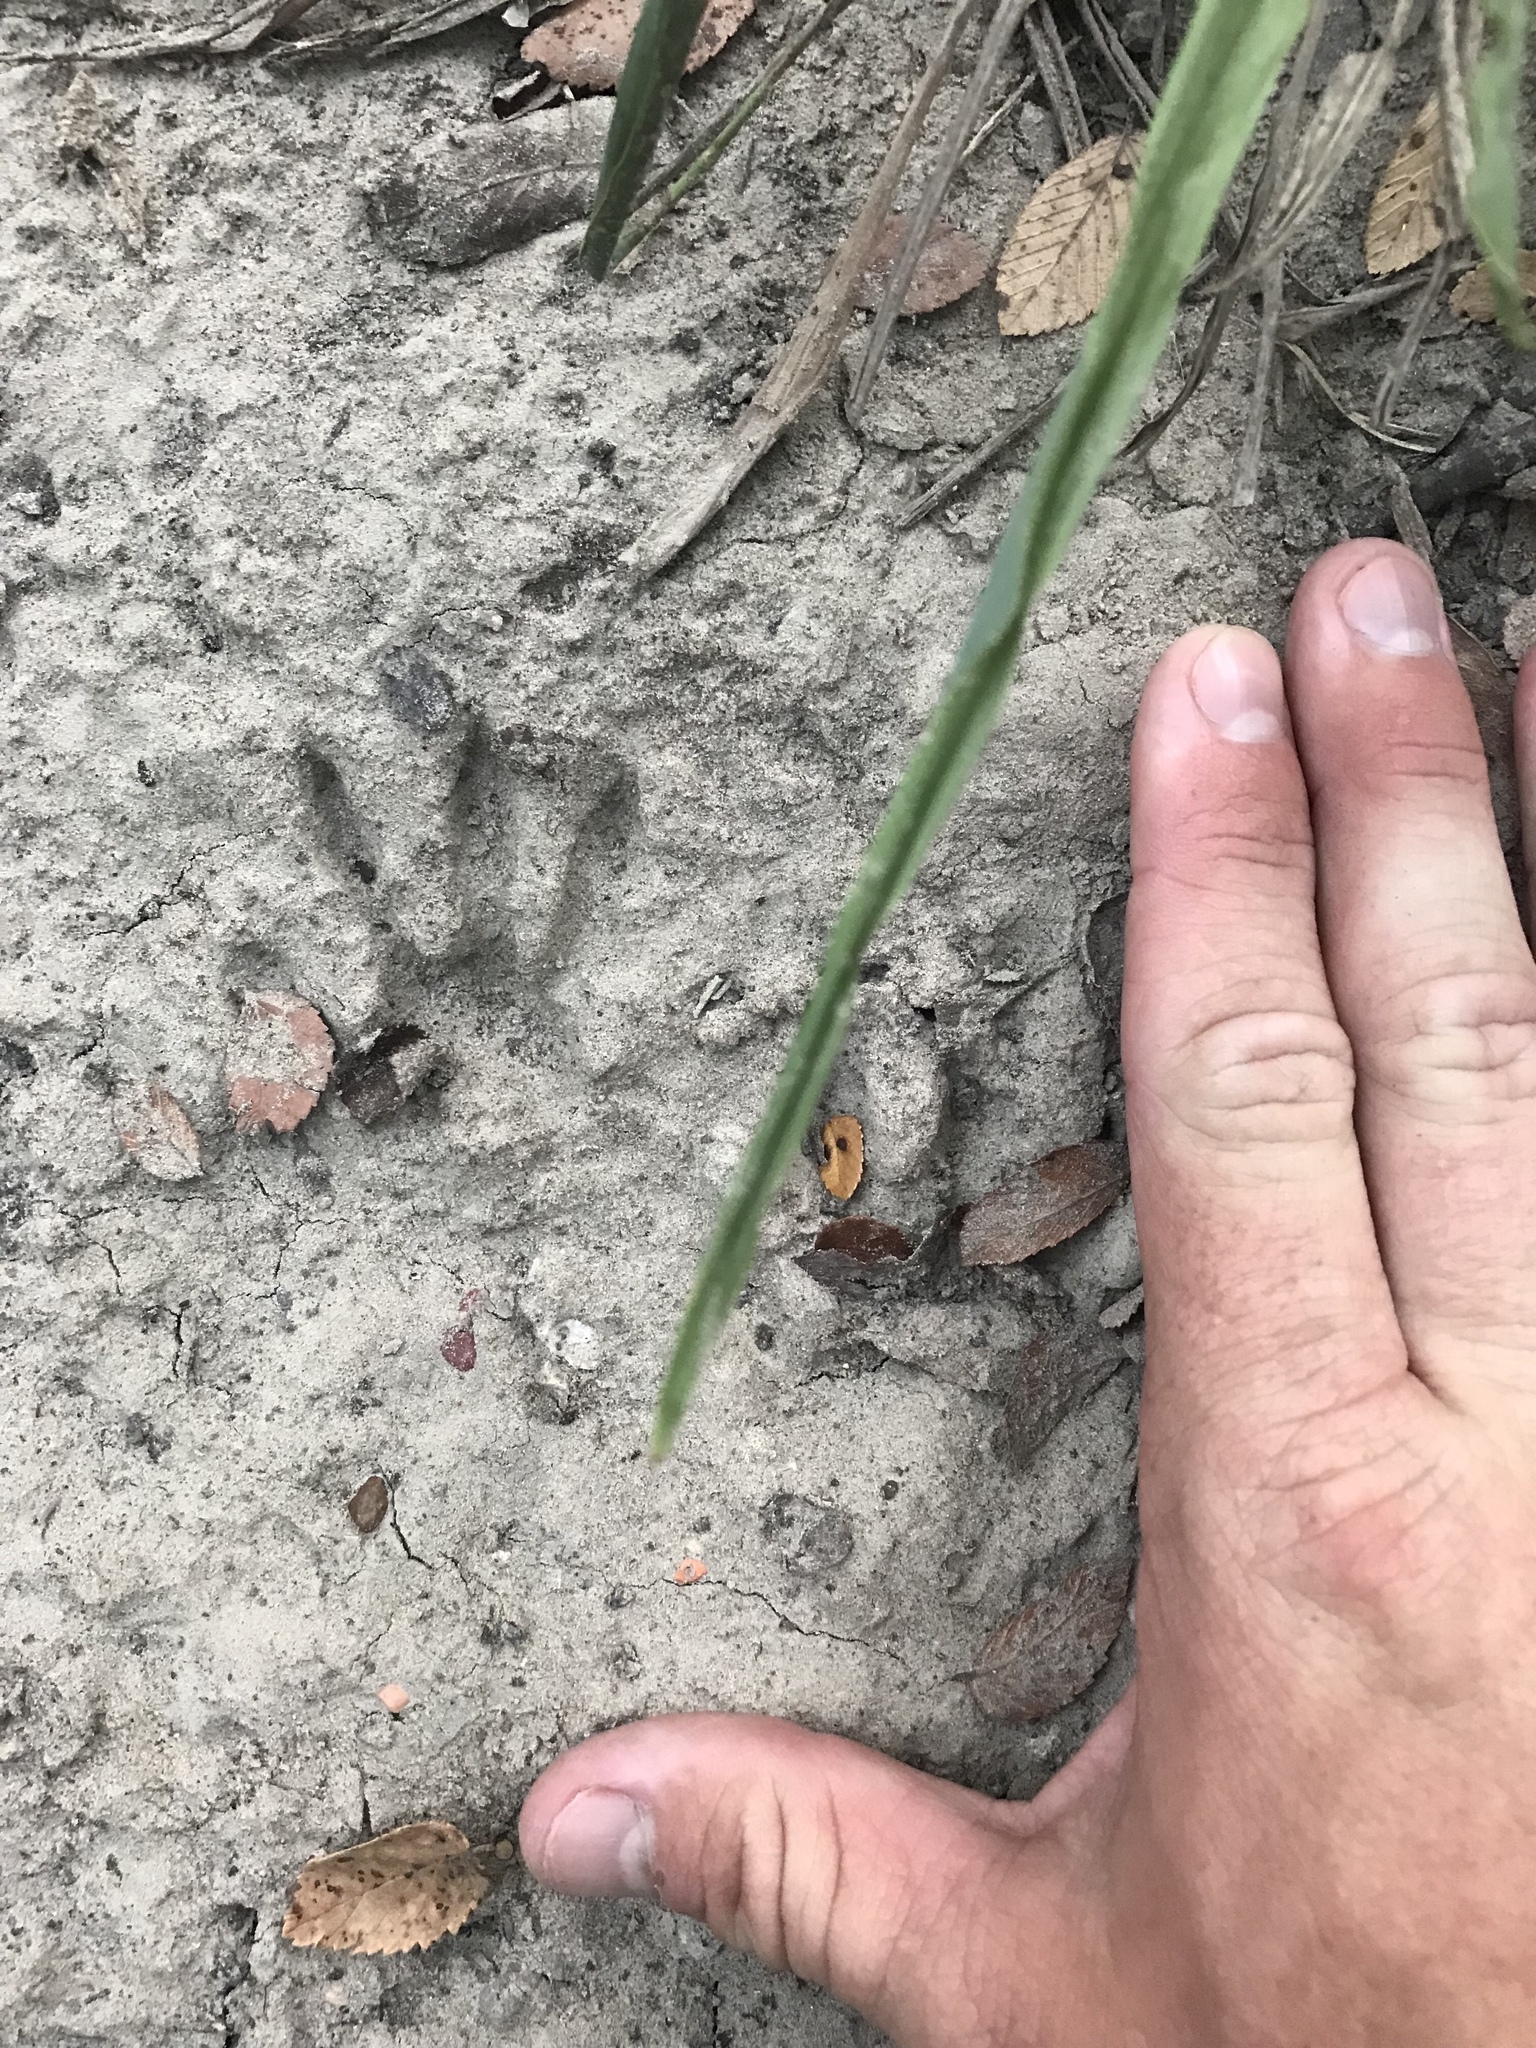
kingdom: Animalia
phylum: Chordata
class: Mammalia
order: Carnivora
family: Procyonidae
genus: Procyon
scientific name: Procyon lotor
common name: Raccoon
